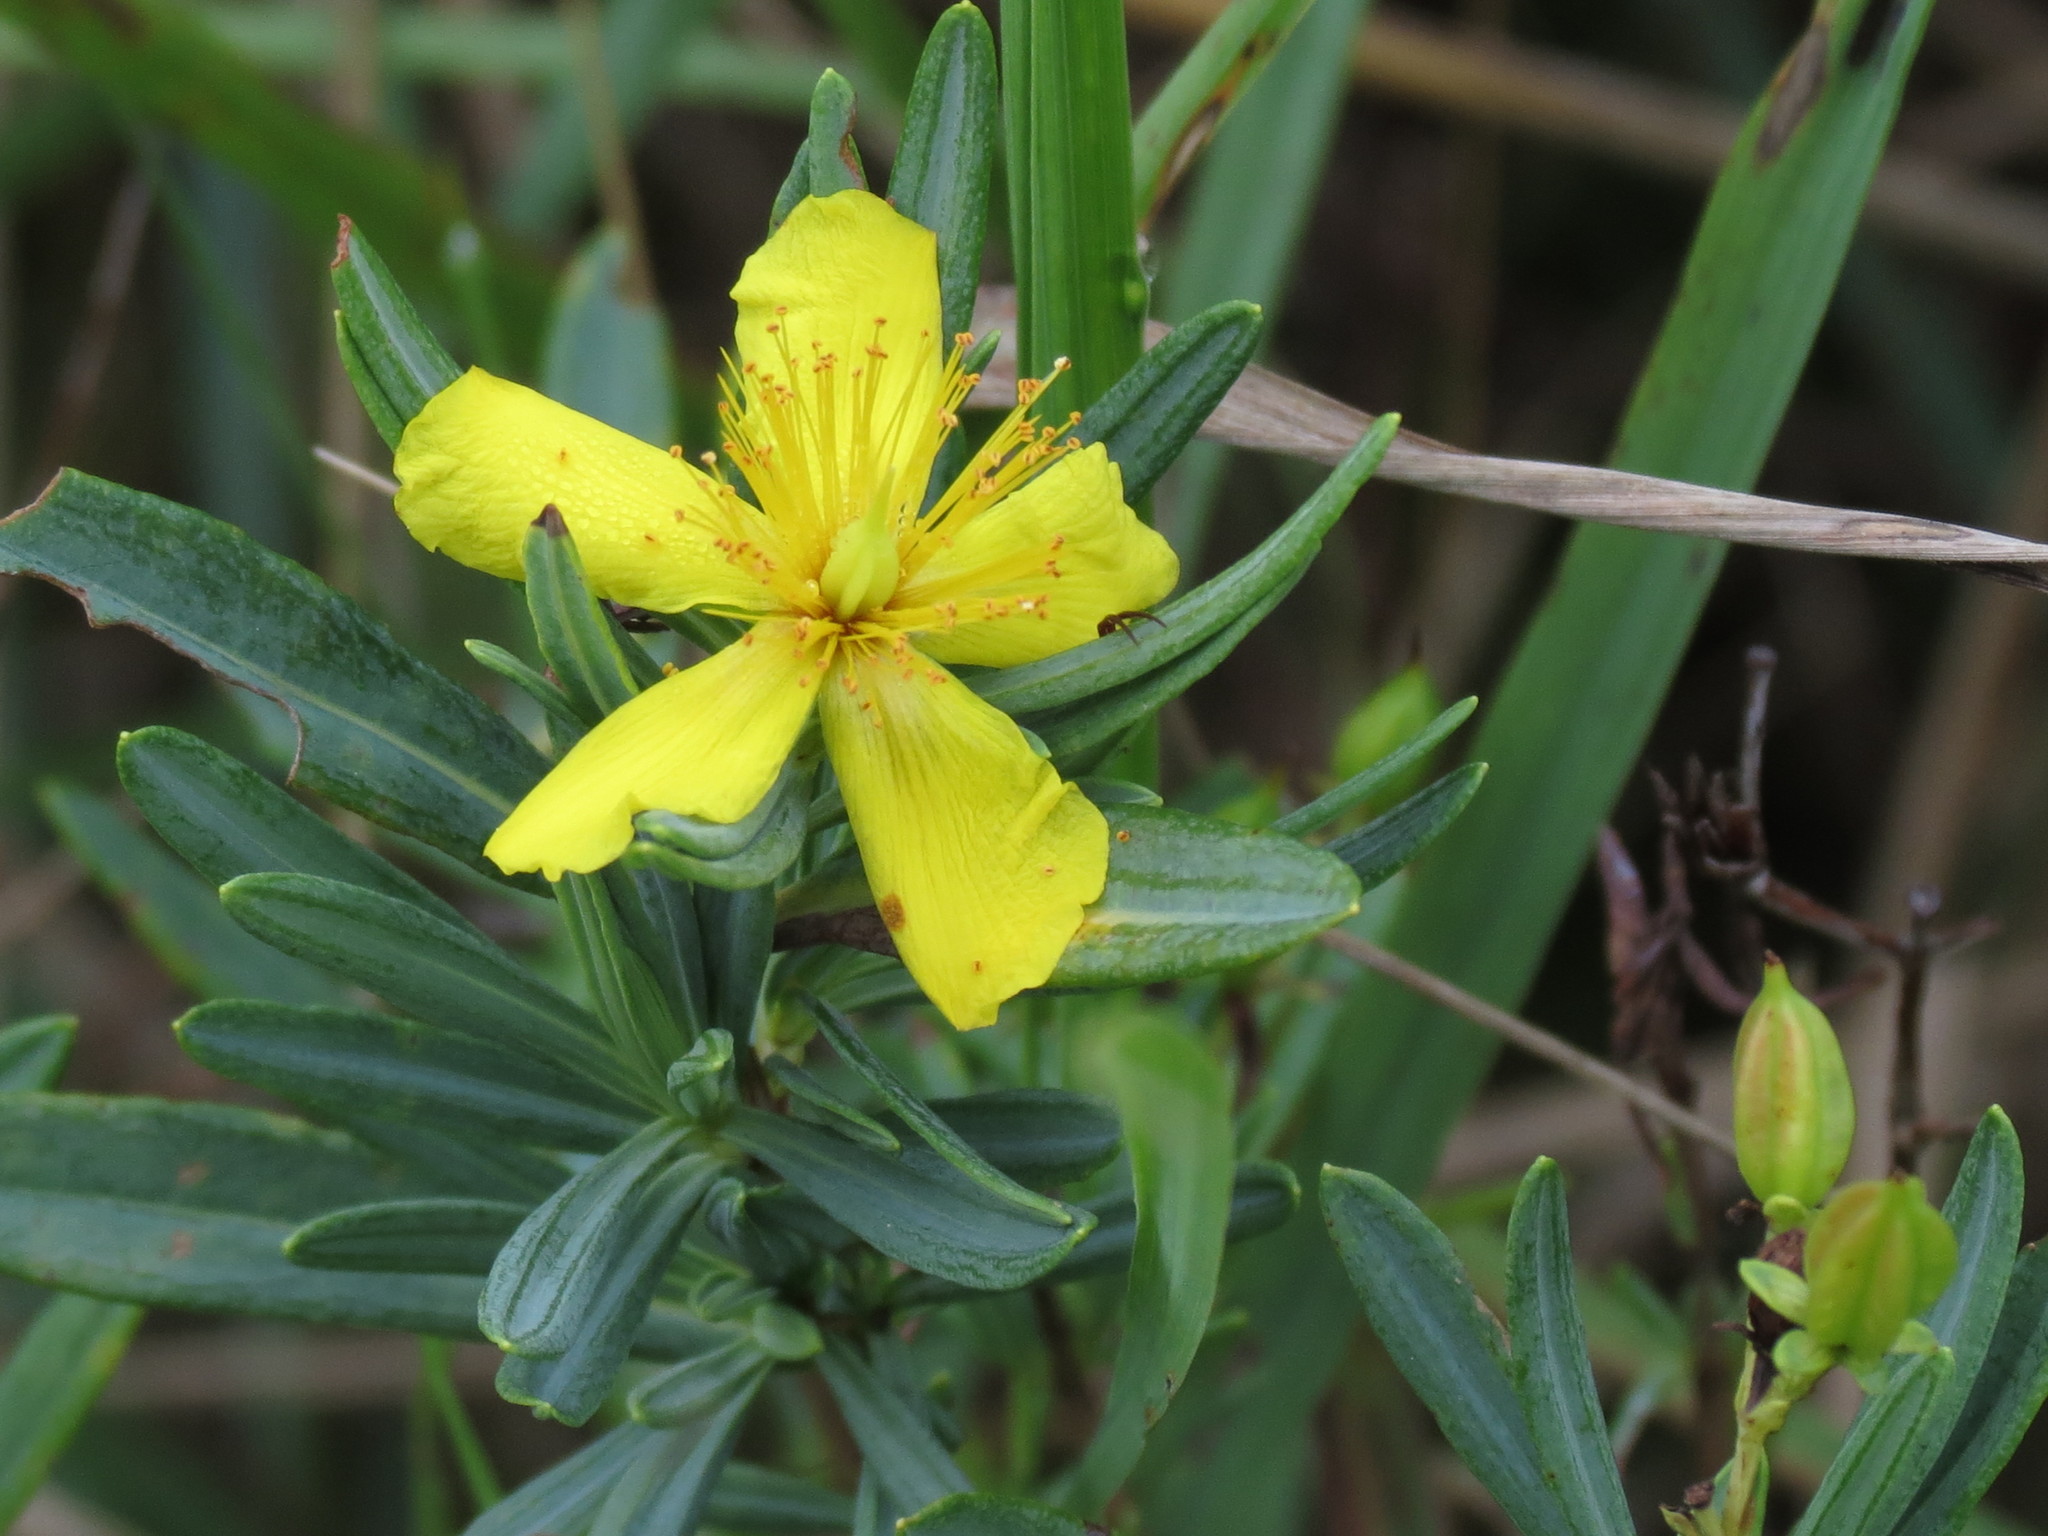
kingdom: Plantae
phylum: Tracheophyta
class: Magnoliopsida
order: Malpighiales
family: Hypericaceae
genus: Hypericum
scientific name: Hypericum kalmianum
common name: Kalm's st. john's-wort
